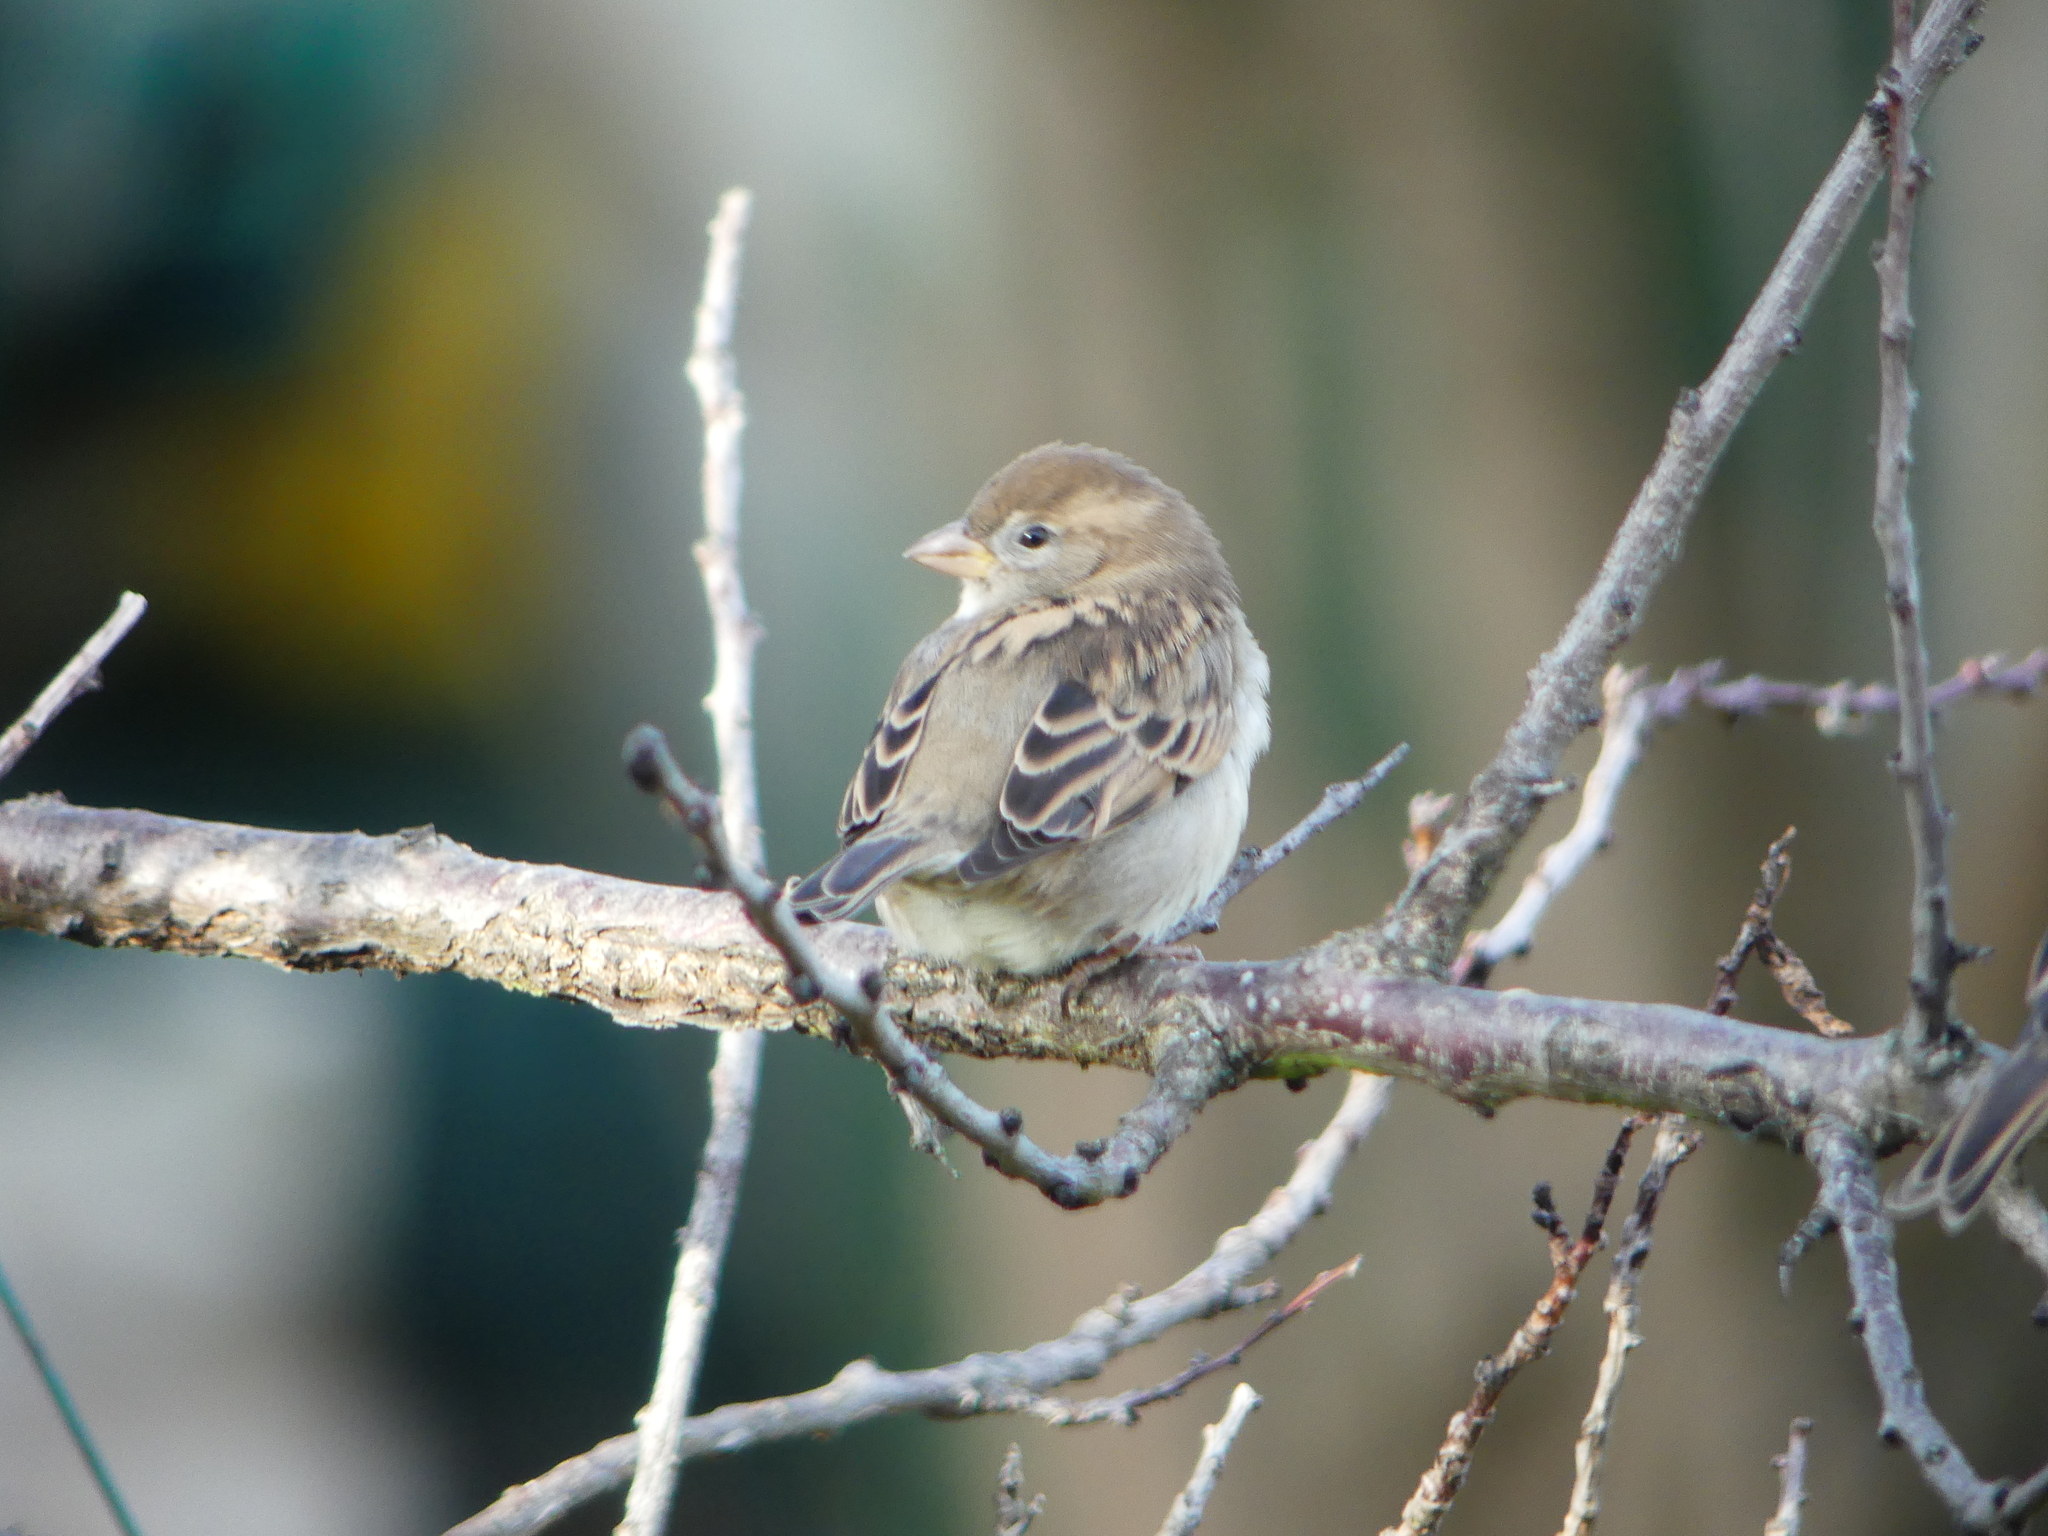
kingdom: Animalia
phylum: Chordata
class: Aves
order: Passeriformes
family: Passeridae
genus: Passer
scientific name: Passer domesticus
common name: House sparrow
